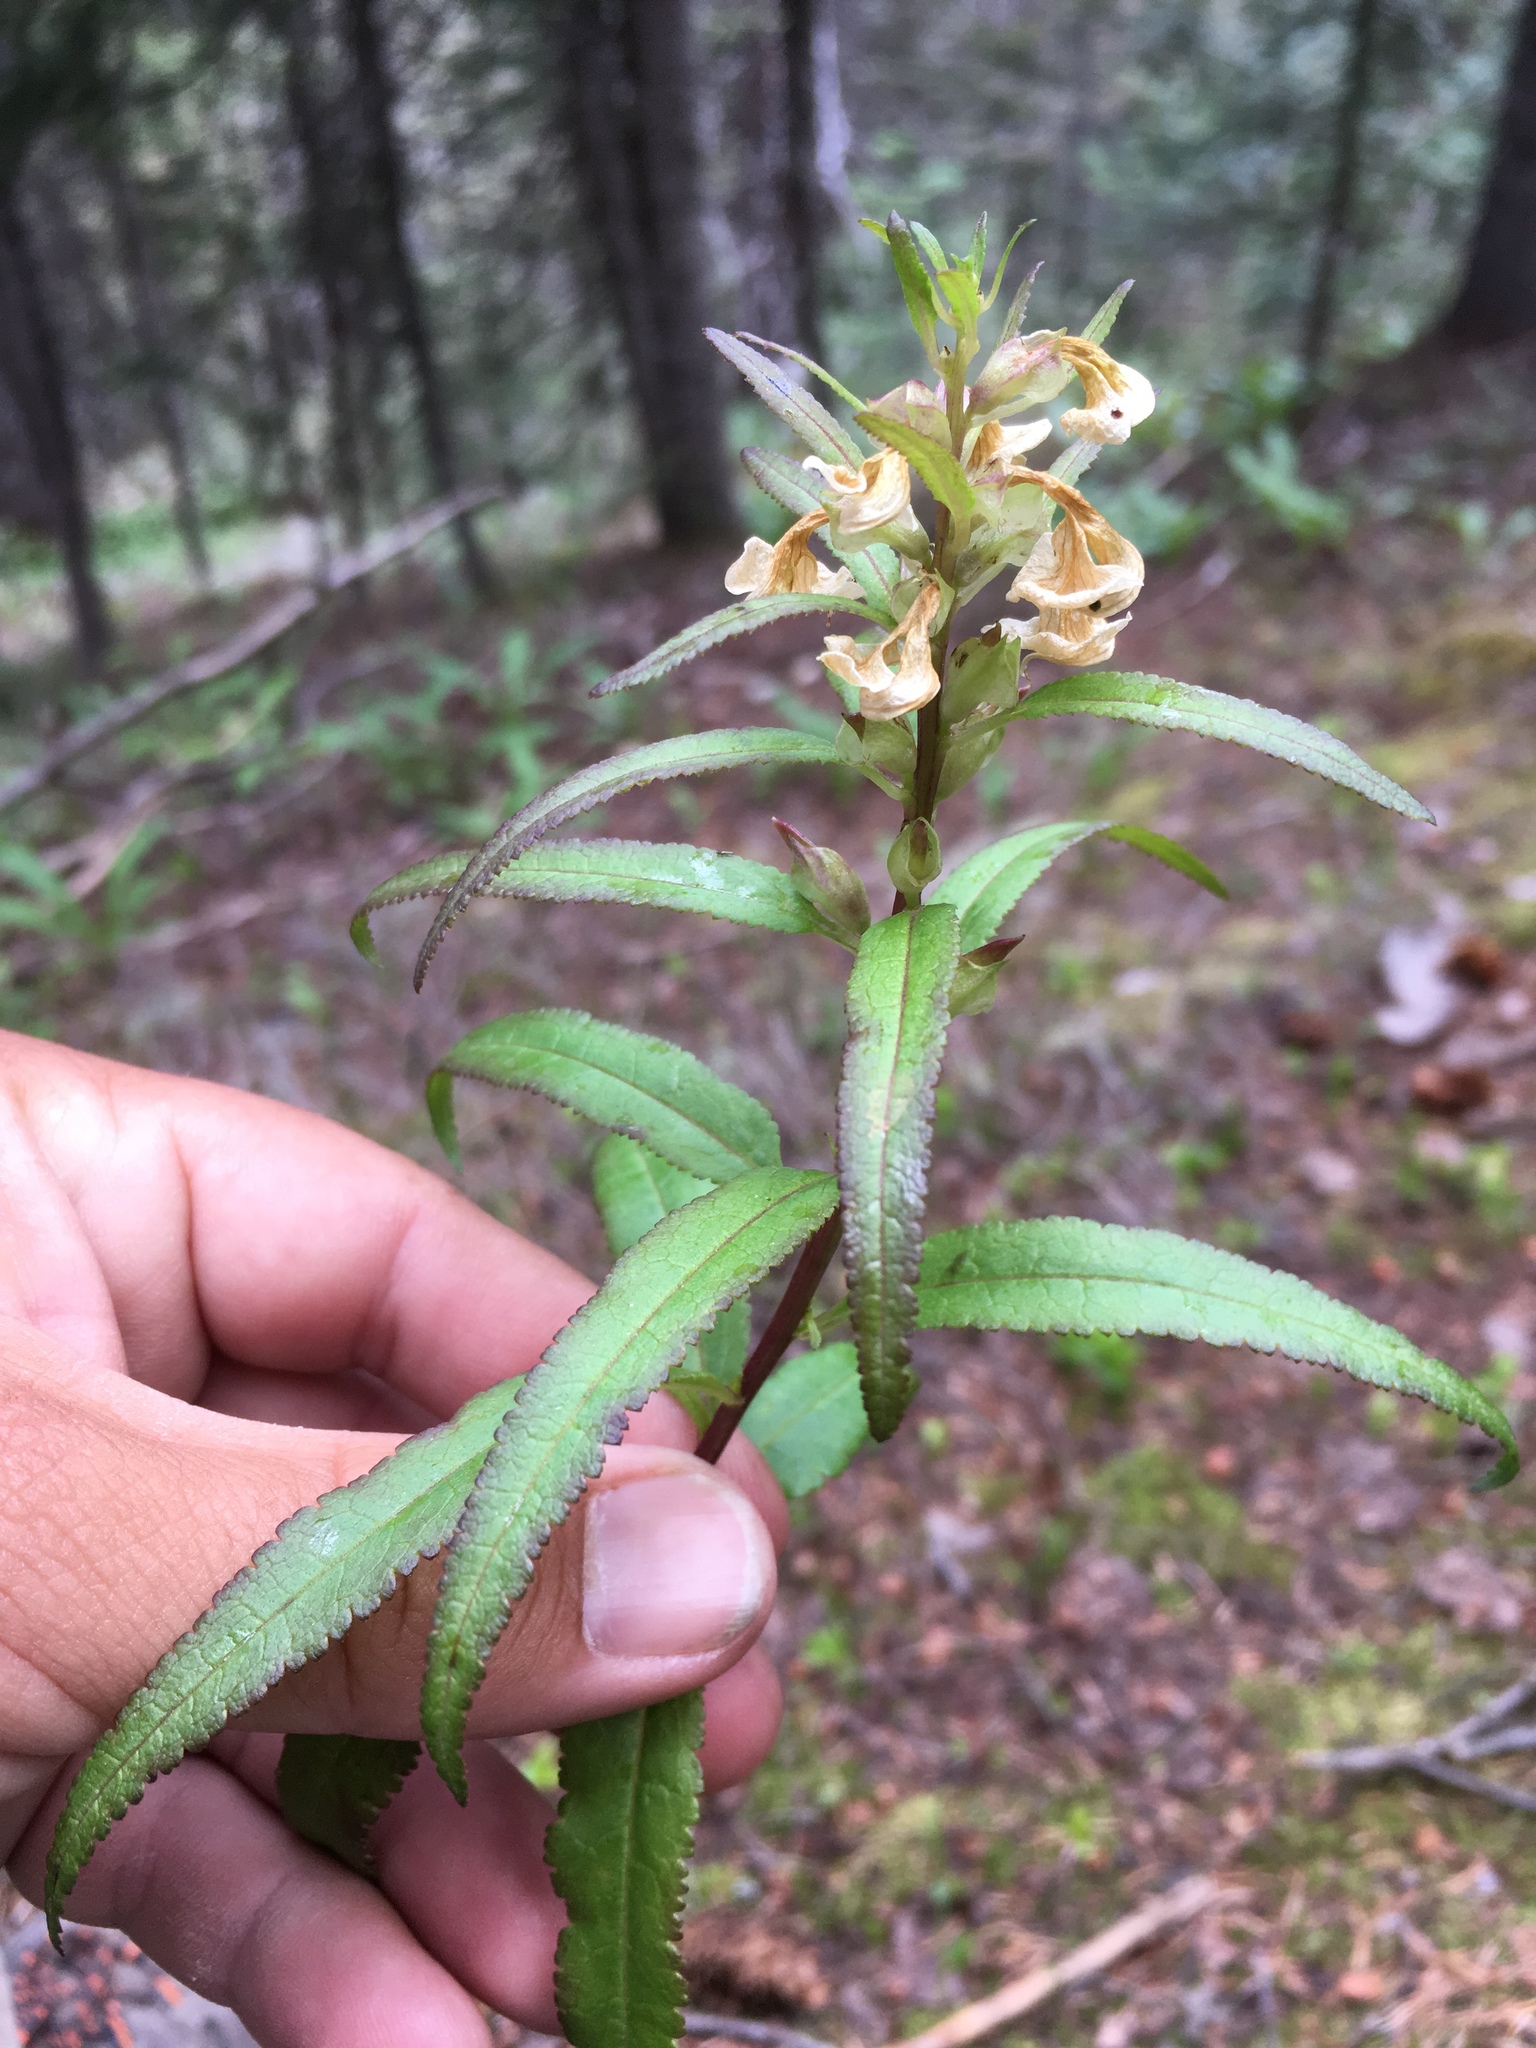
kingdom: Plantae
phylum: Tracheophyta
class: Magnoliopsida
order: Lamiales
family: Orobanchaceae
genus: Pedicularis
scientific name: Pedicularis racemosa
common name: Leafy lousewort
